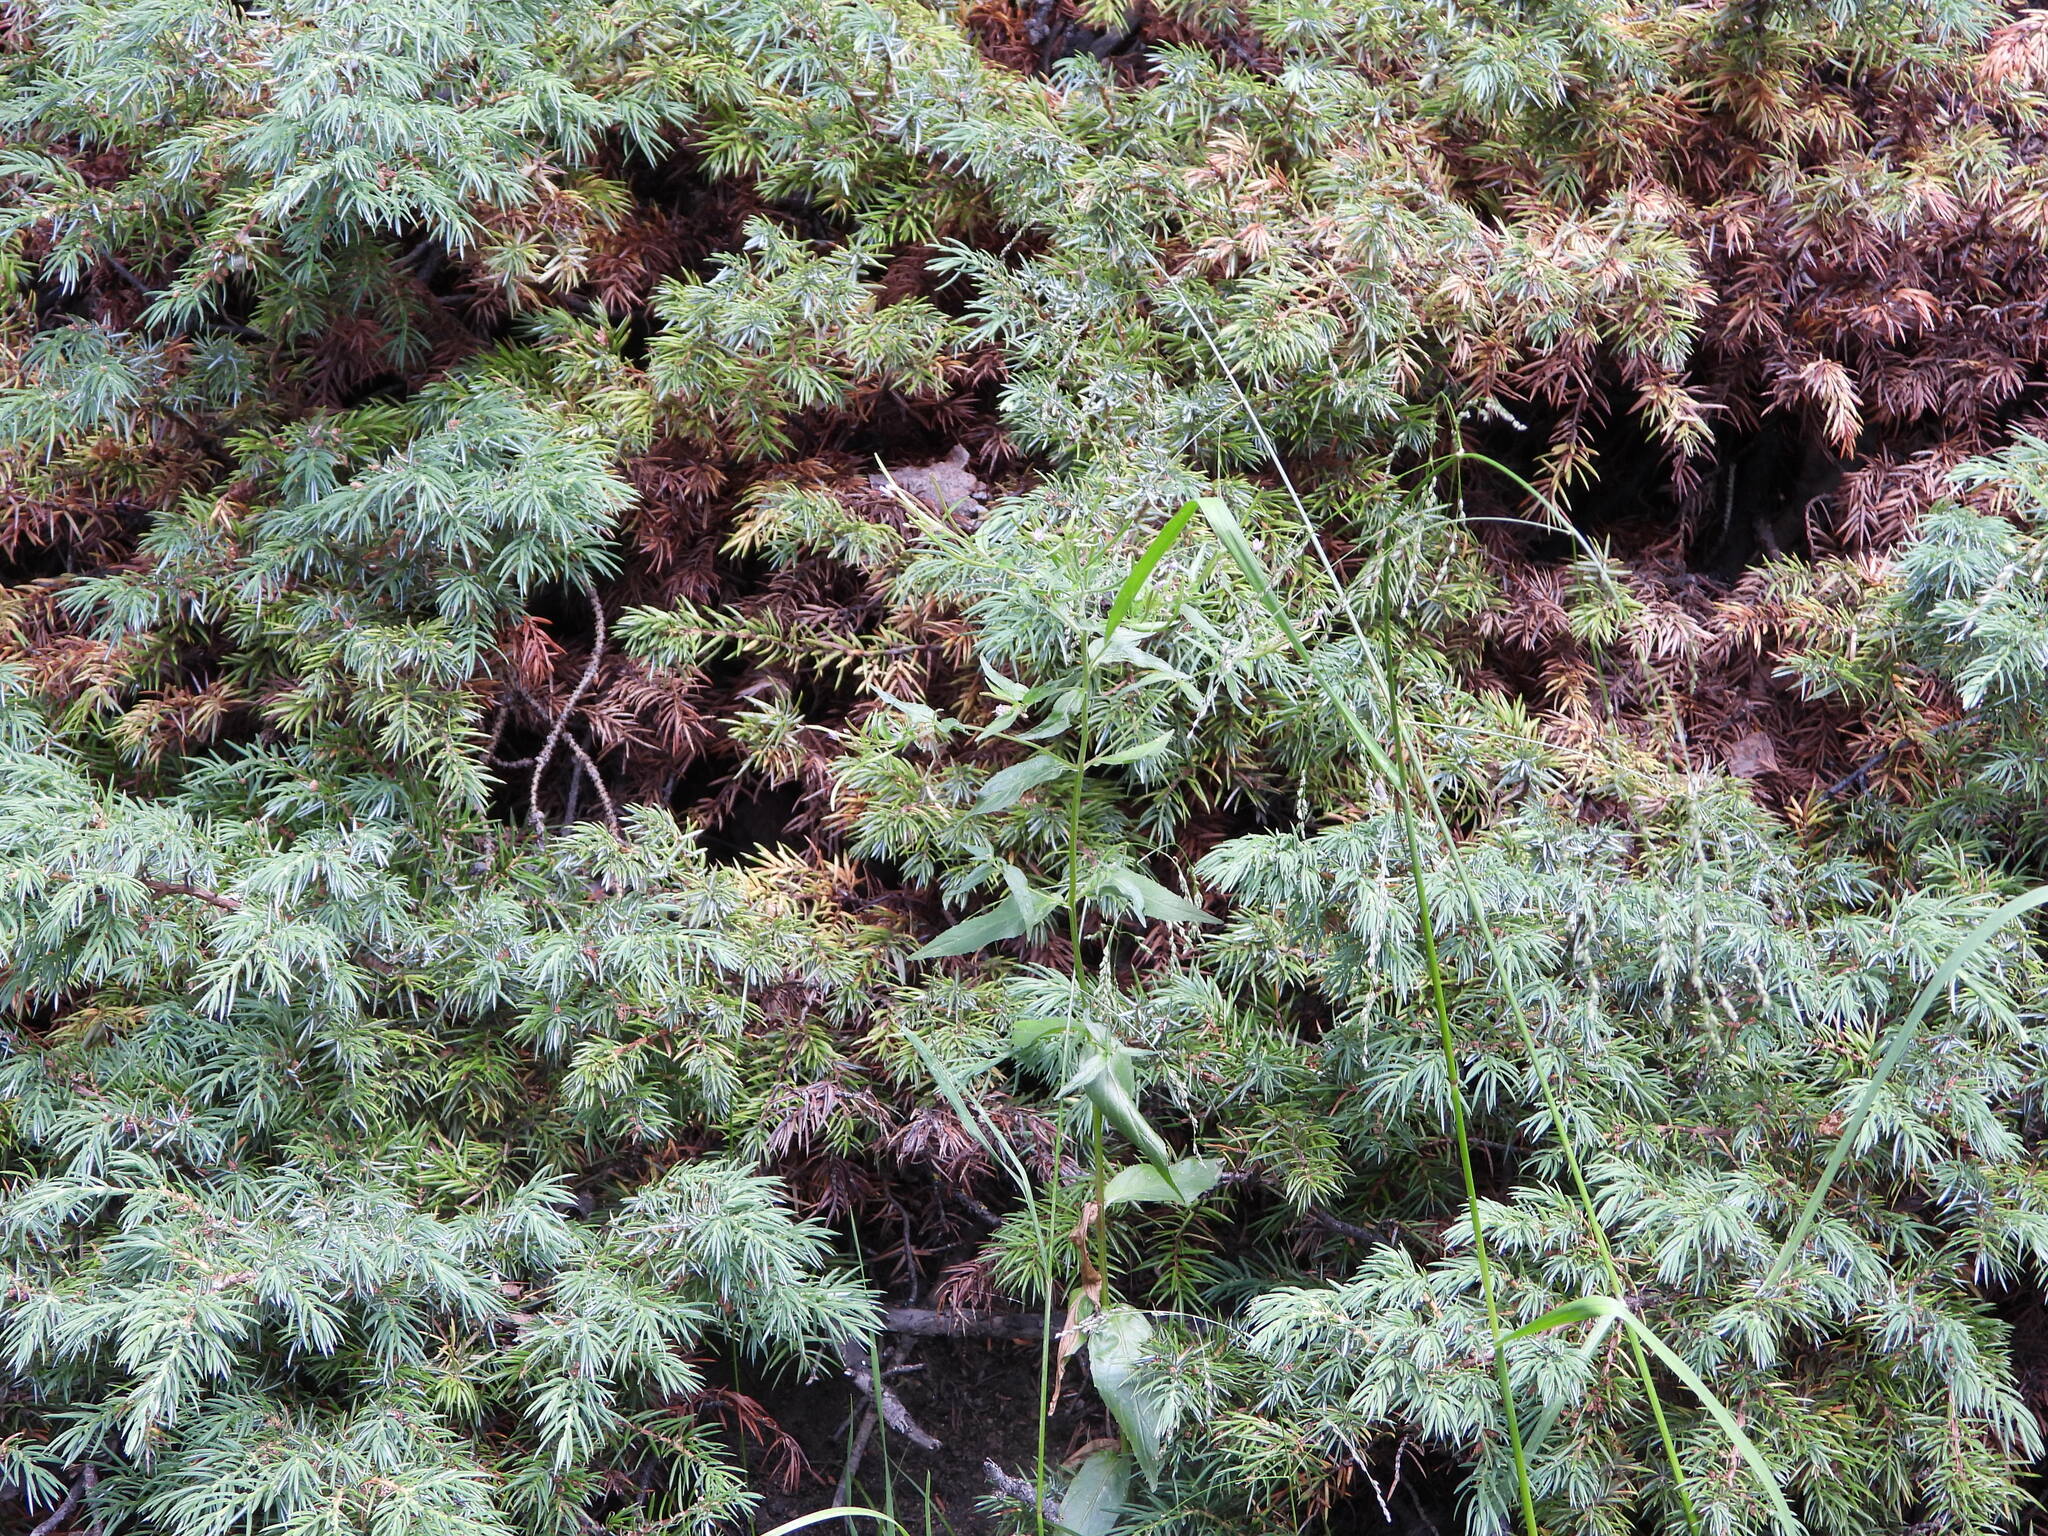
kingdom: Plantae
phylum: Tracheophyta
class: Pinopsida
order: Pinales
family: Cupressaceae
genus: Juniperus
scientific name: Juniperus communis
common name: Common juniper
